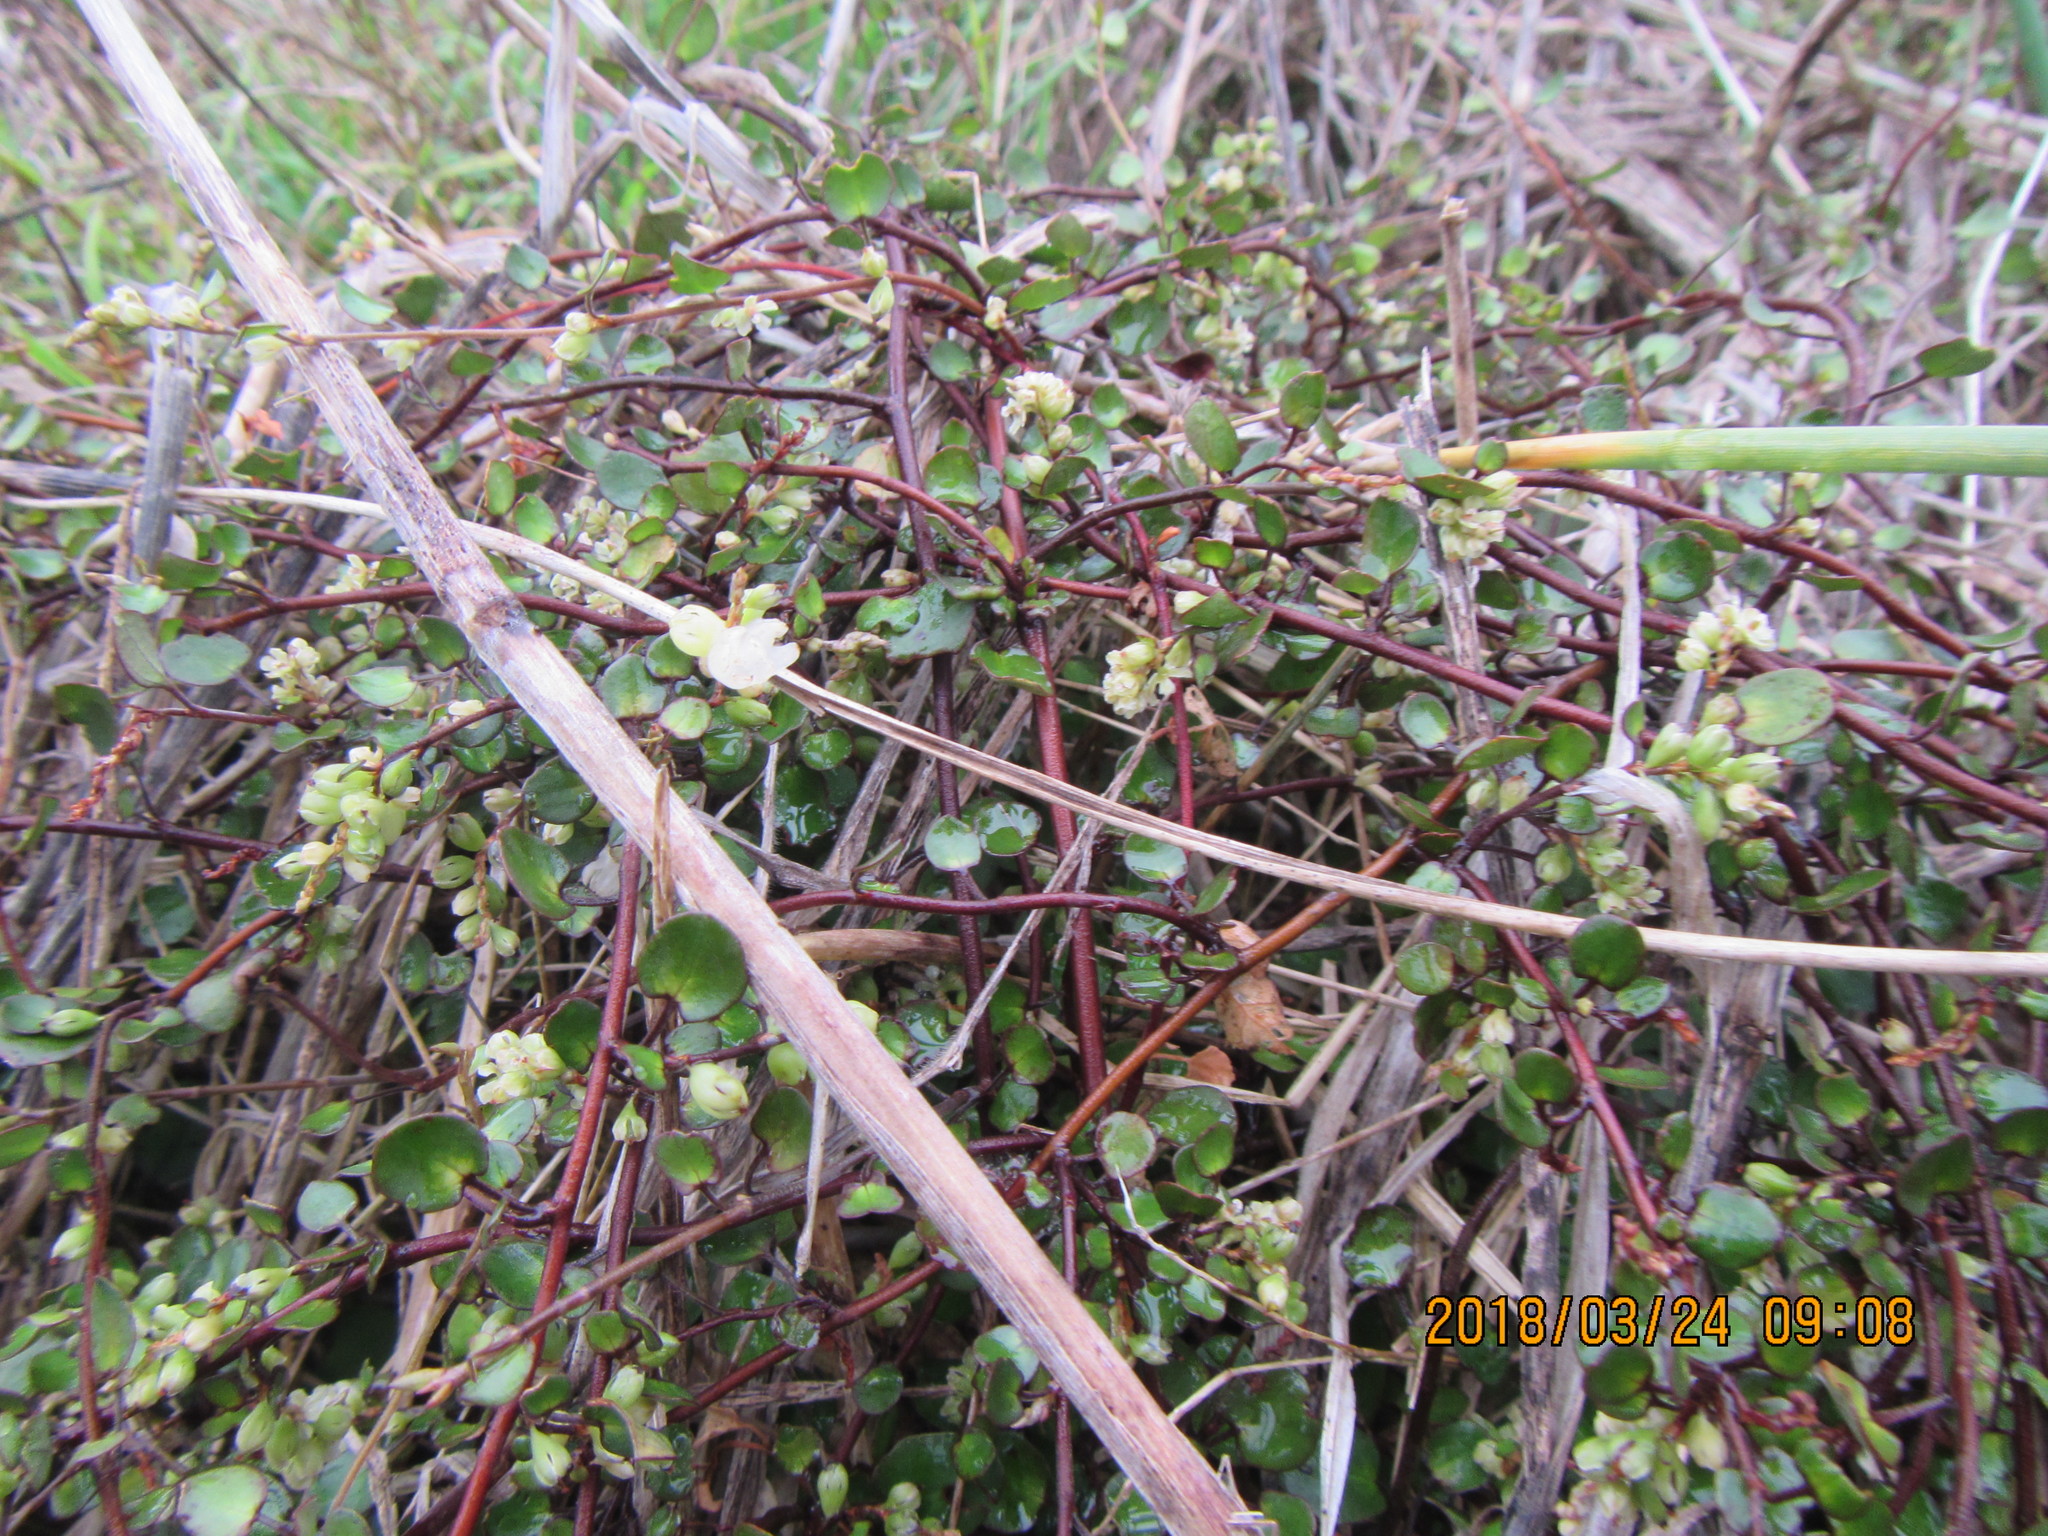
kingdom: Plantae
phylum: Tracheophyta
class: Magnoliopsida
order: Caryophyllales
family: Polygonaceae
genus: Muehlenbeckia
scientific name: Muehlenbeckia complexa
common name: Wireplant
